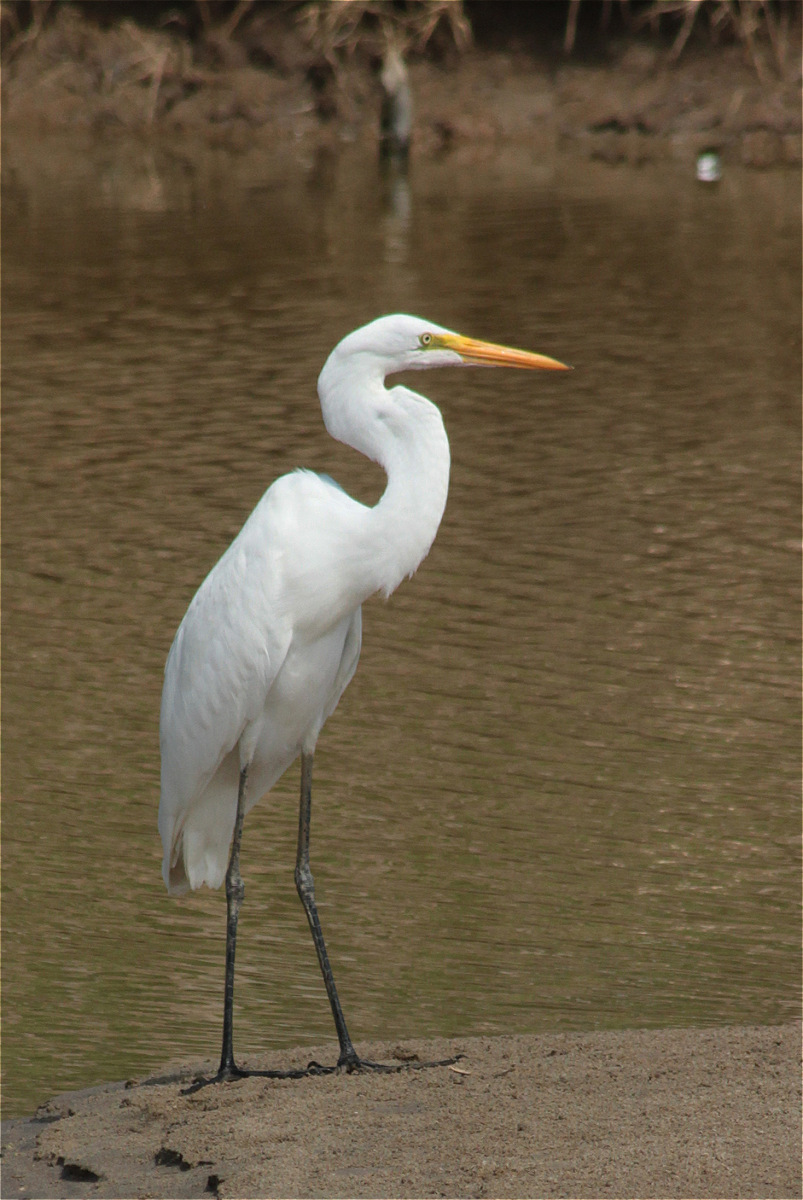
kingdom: Animalia
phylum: Chordata
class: Aves
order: Pelecaniformes
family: Ardeidae
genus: Ardea
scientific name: Ardea alba
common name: Great egret
